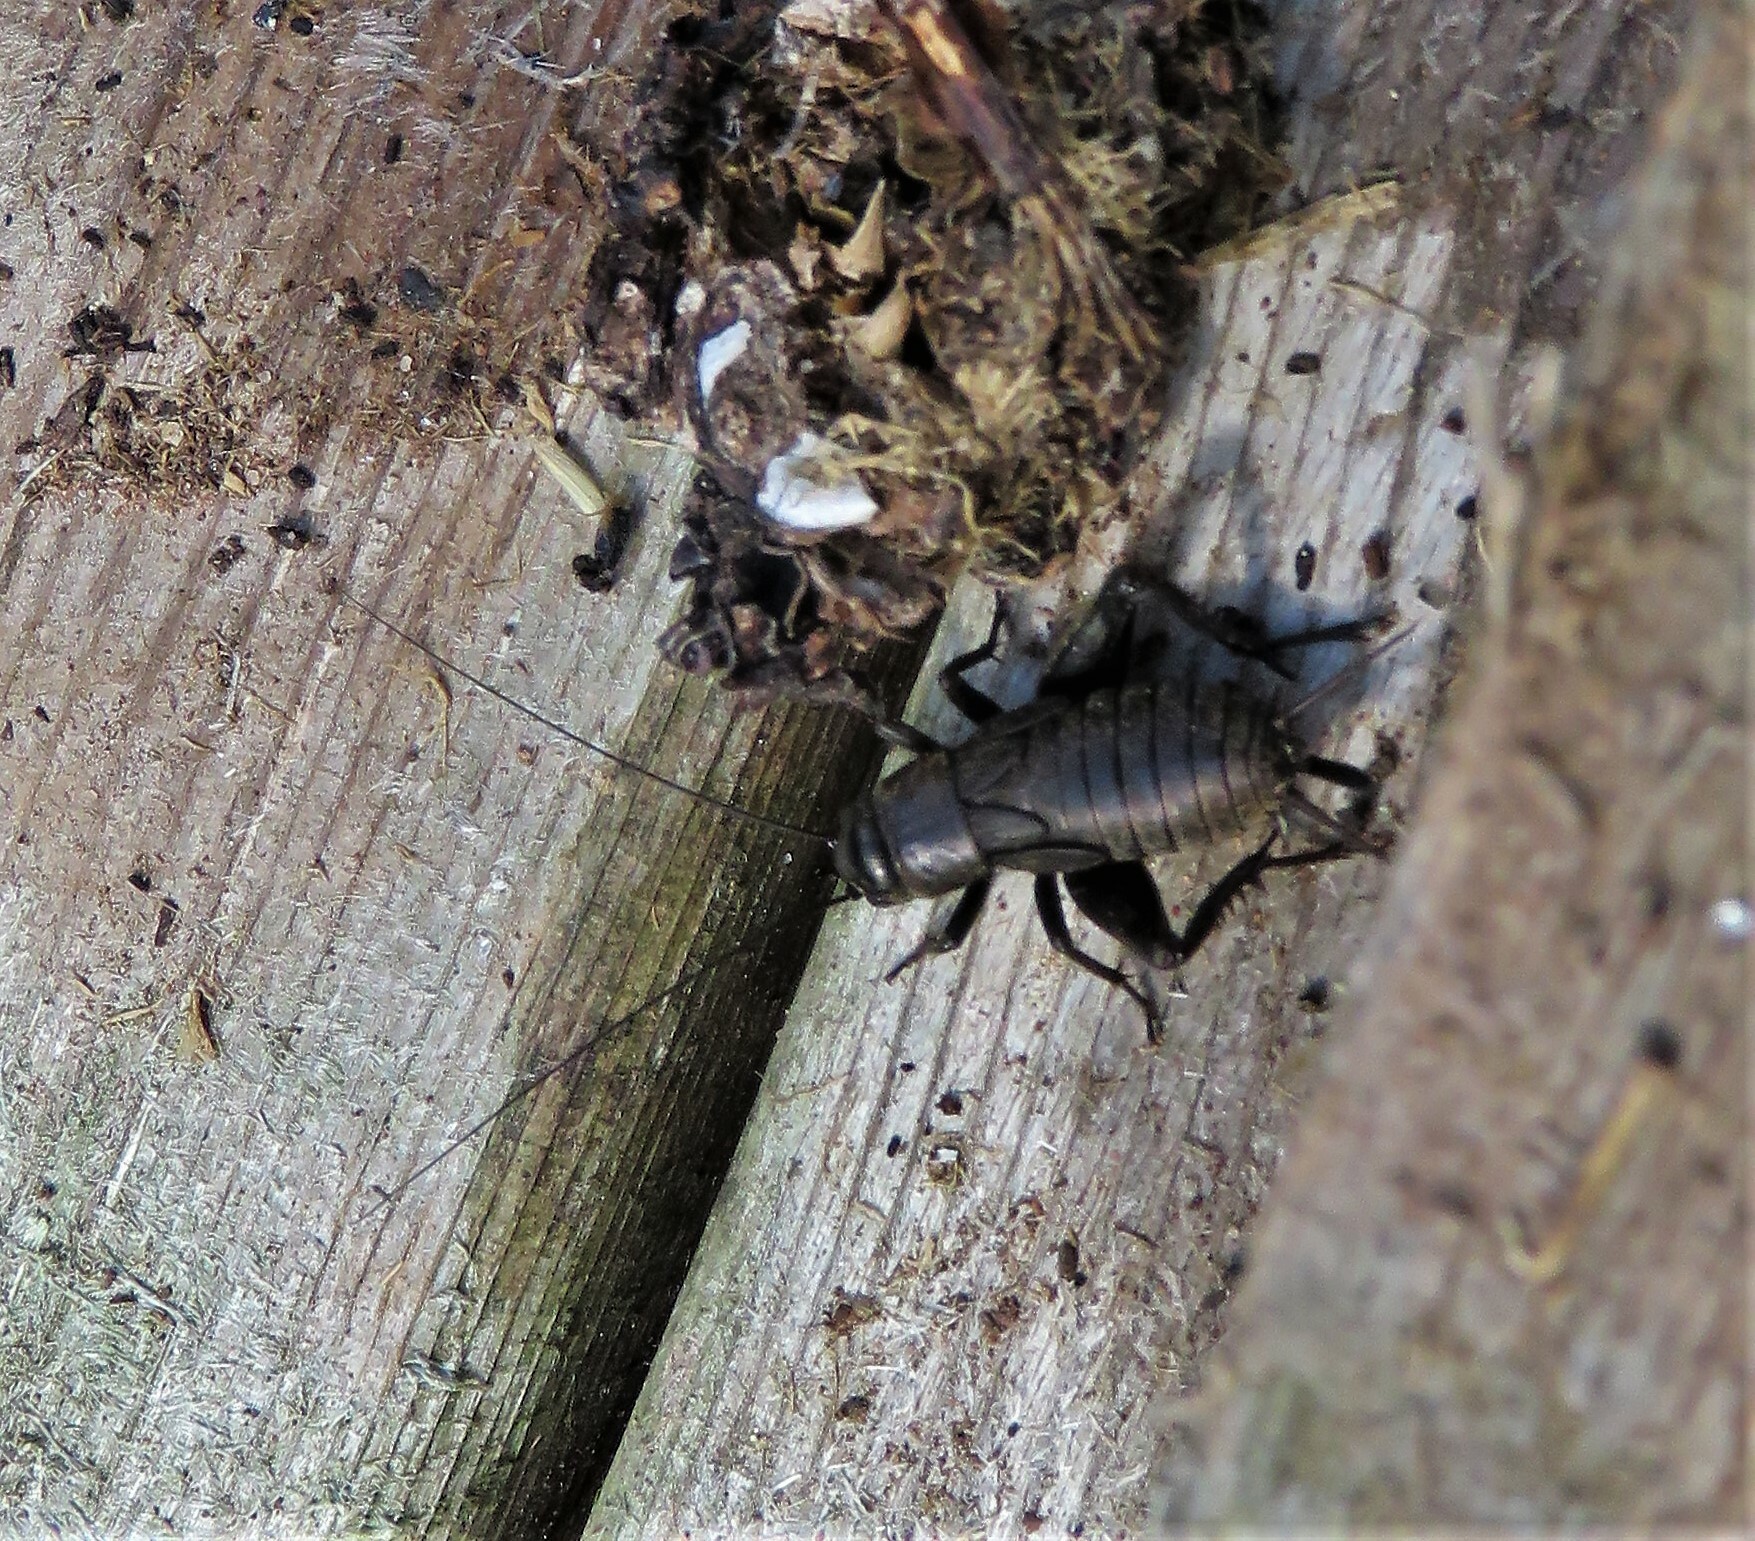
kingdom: Animalia
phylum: Arthropoda
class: Insecta
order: Orthoptera
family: Gryllidae
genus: Gryllus
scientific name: Gryllus pennsylvanicus
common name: Fall field cricket
